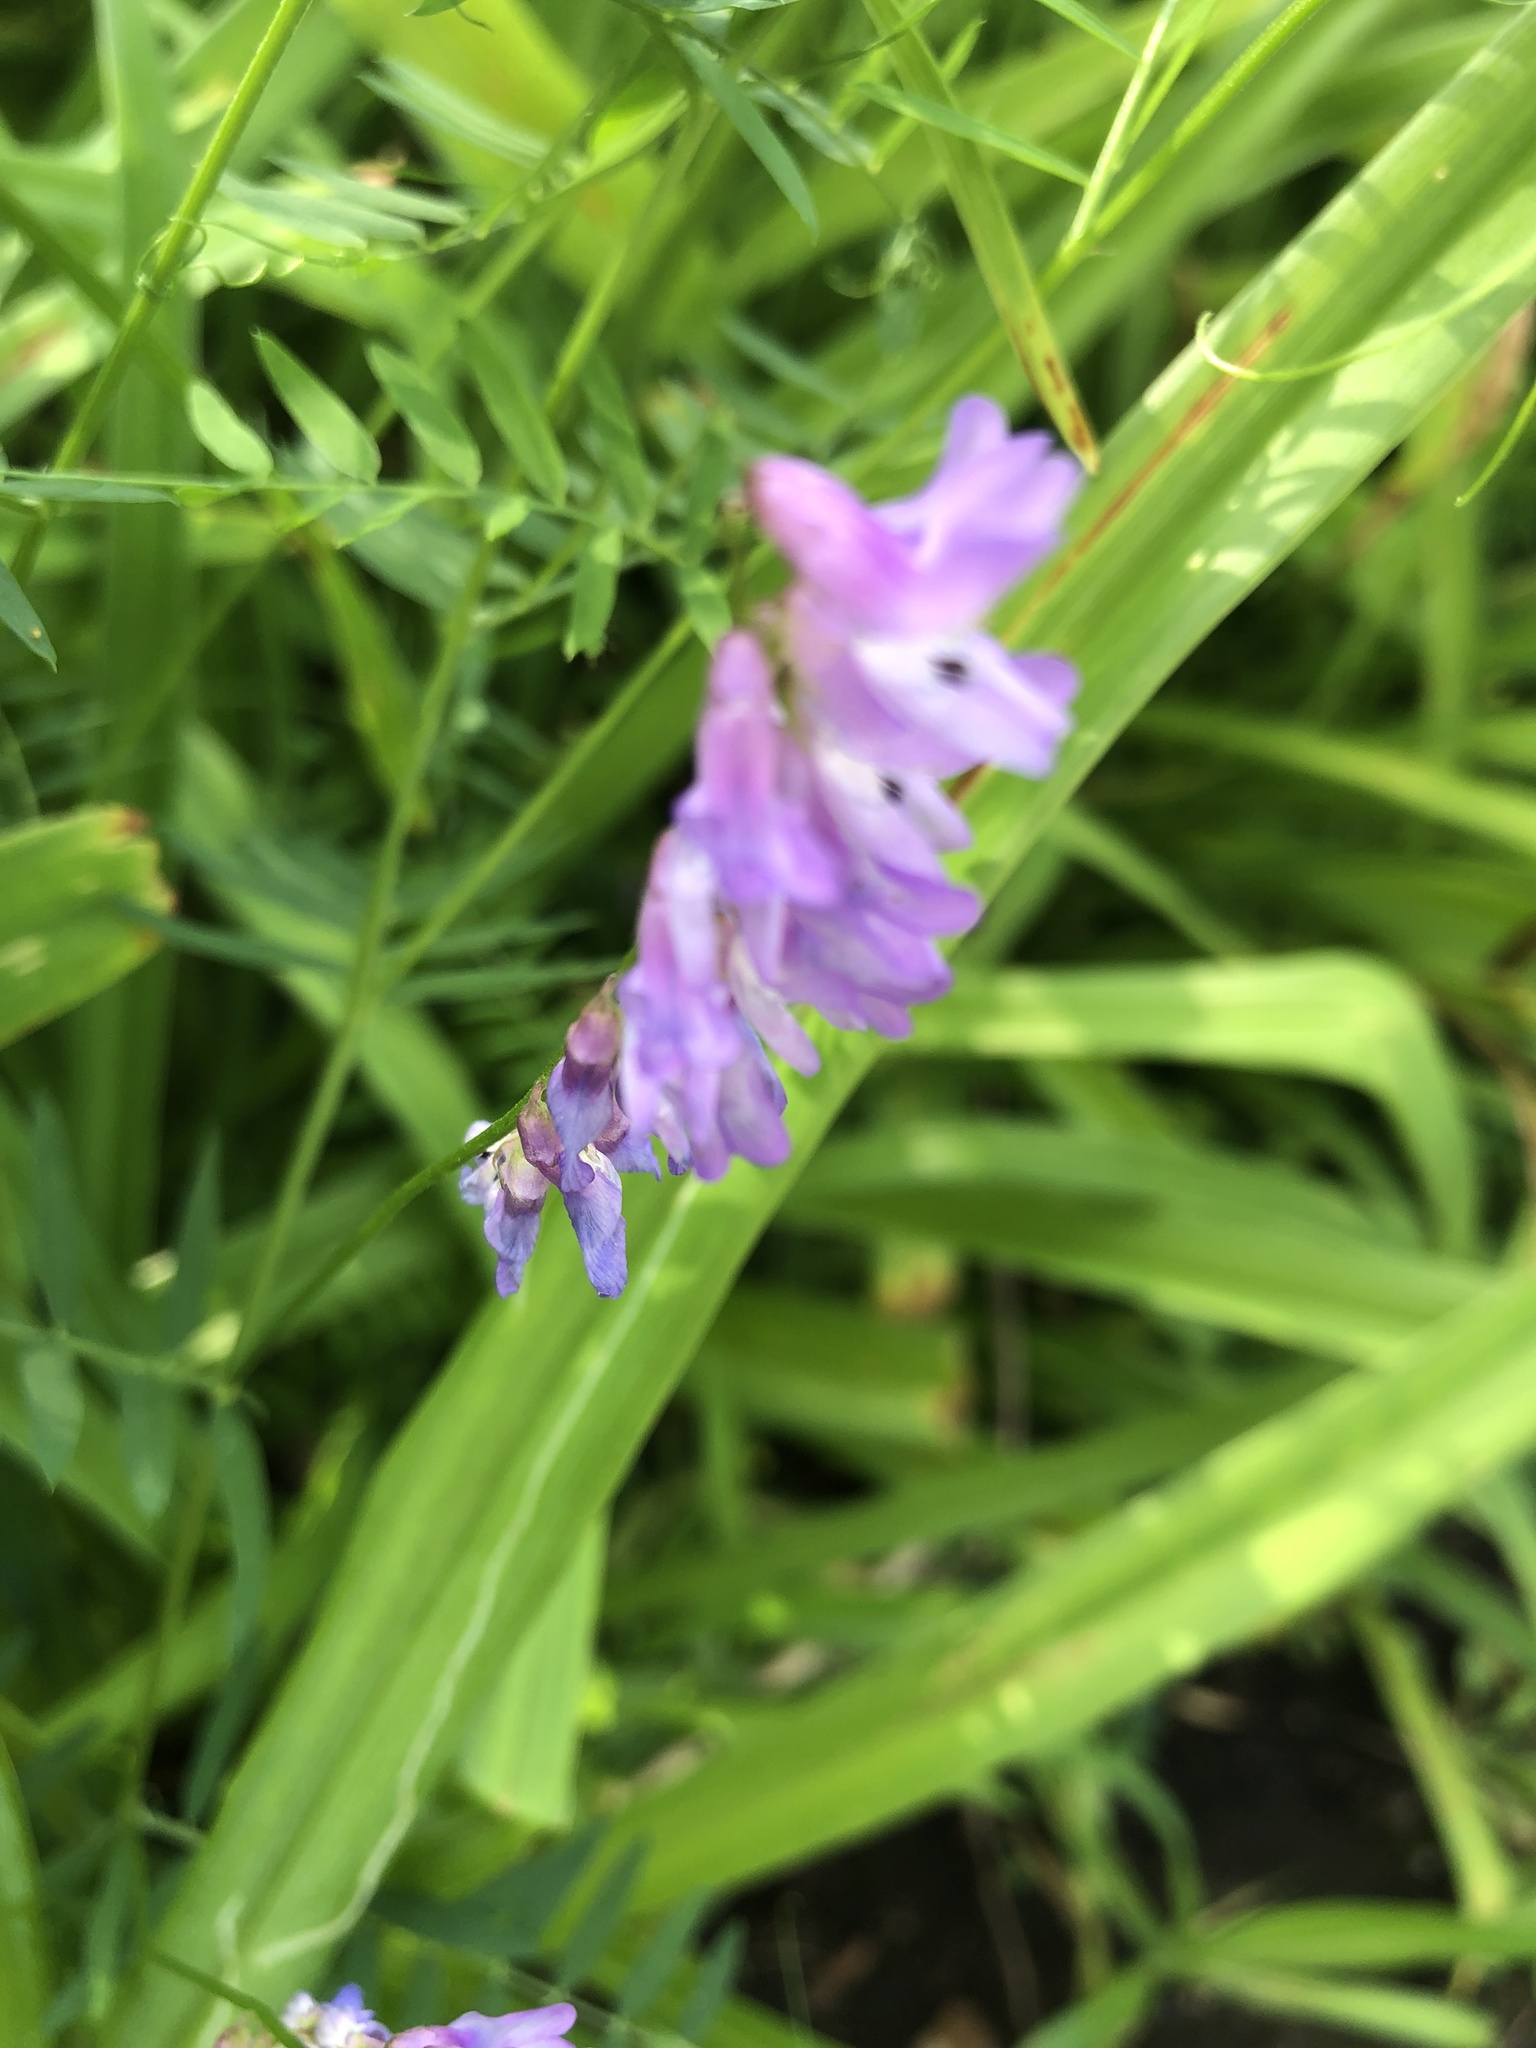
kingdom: Plantae
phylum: Tracheophyta
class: Magnoliopsida
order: Fabales
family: Fabaceae
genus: Vicia
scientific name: Vicia cracca
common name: Bird vetch
